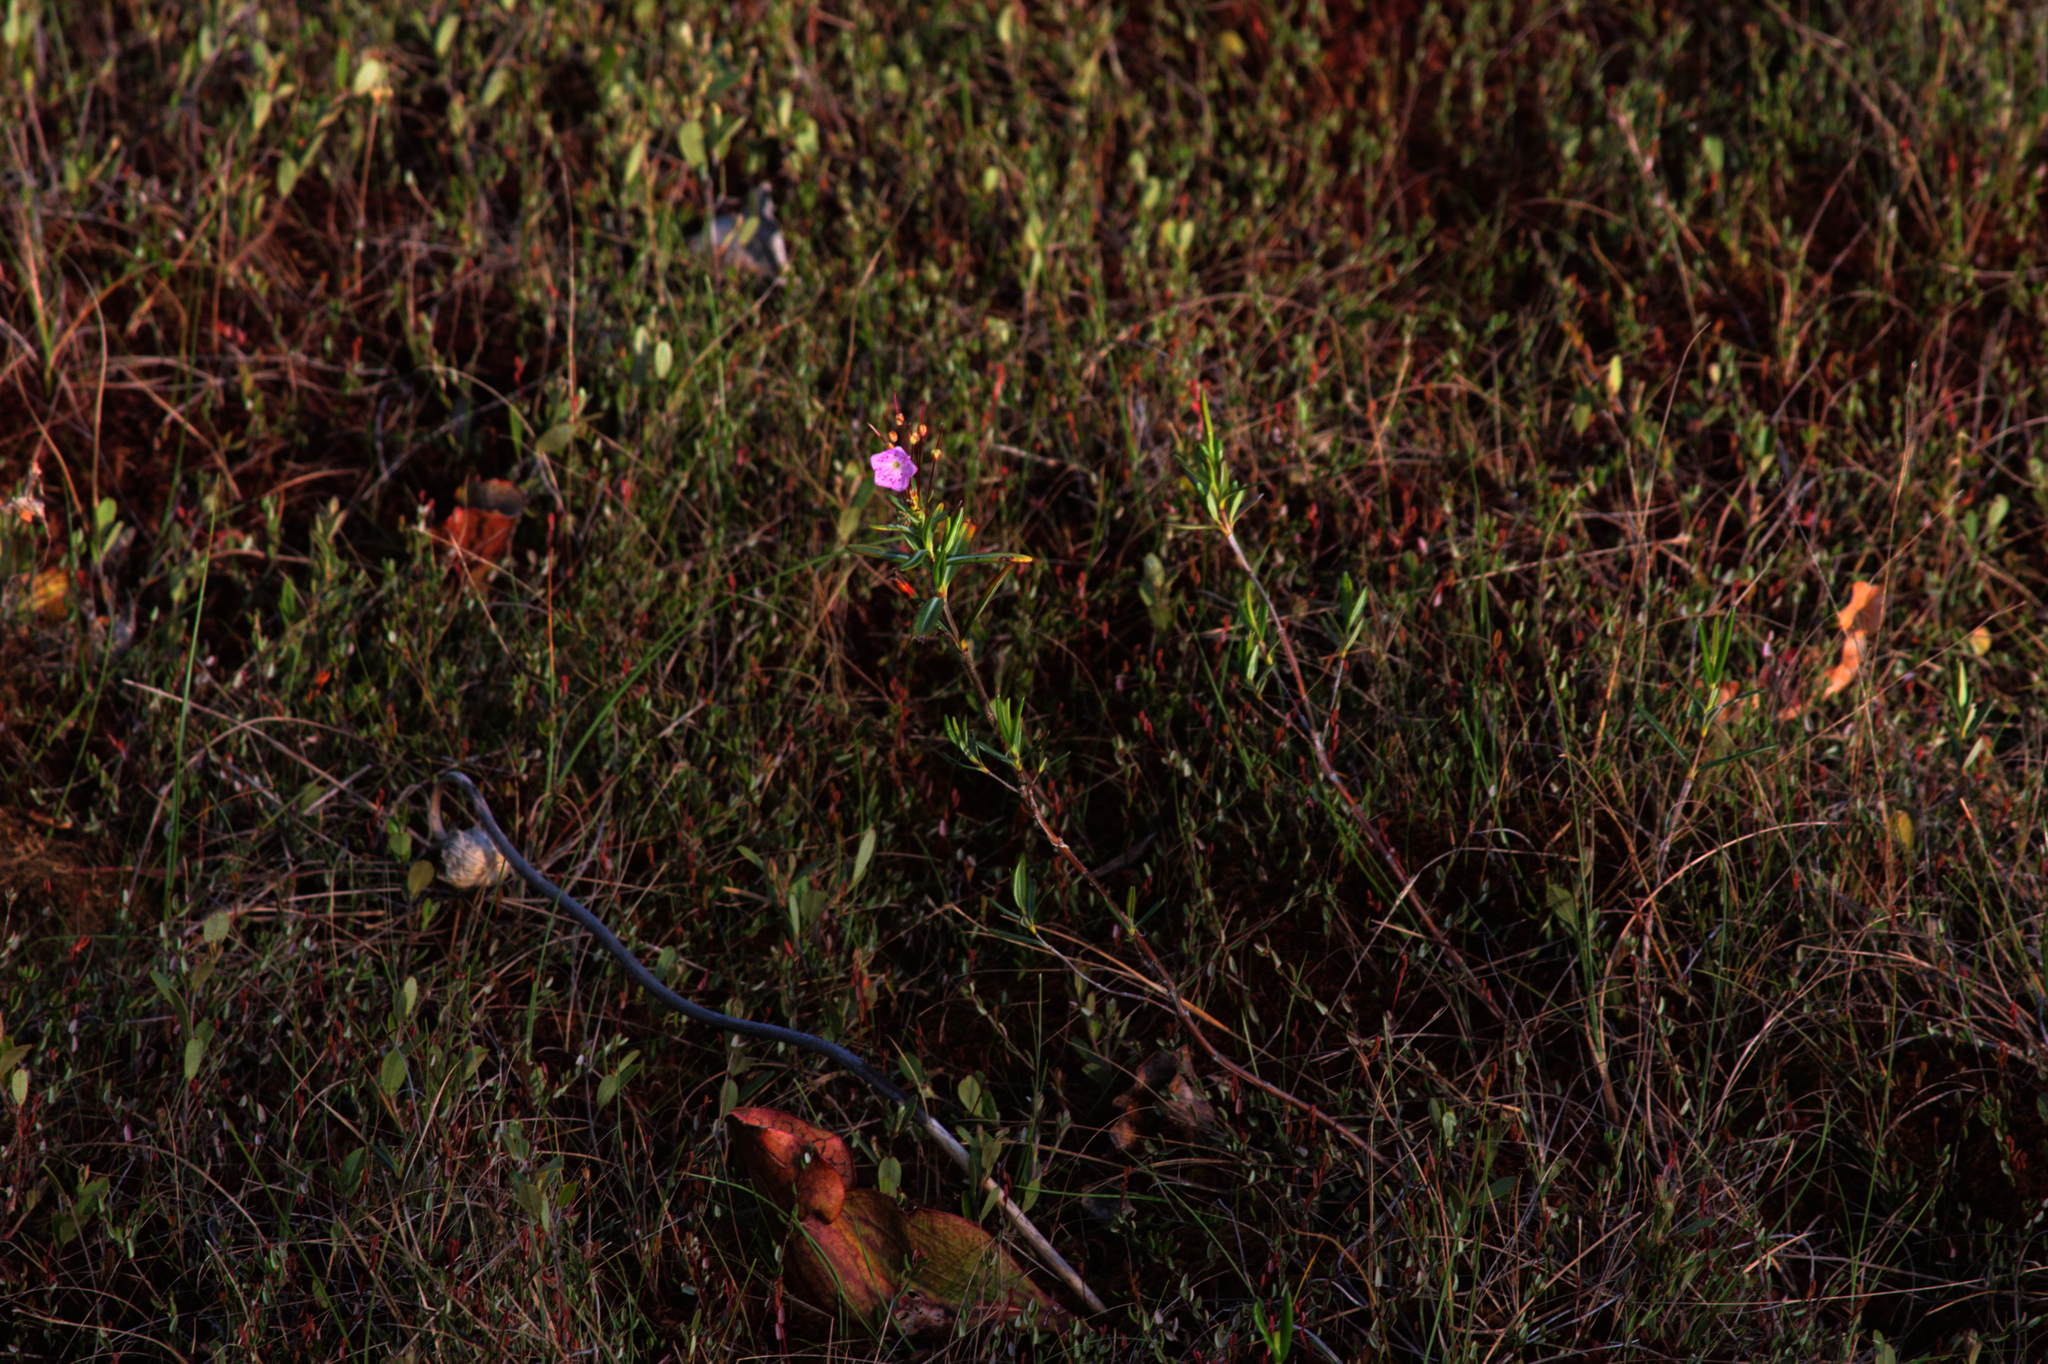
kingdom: Plantae
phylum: Tracheophyta
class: Magnoliopsida
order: Ericales
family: Ericaceae
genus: Kalmia
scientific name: Kalmia polifolia
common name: Bog-laurel
